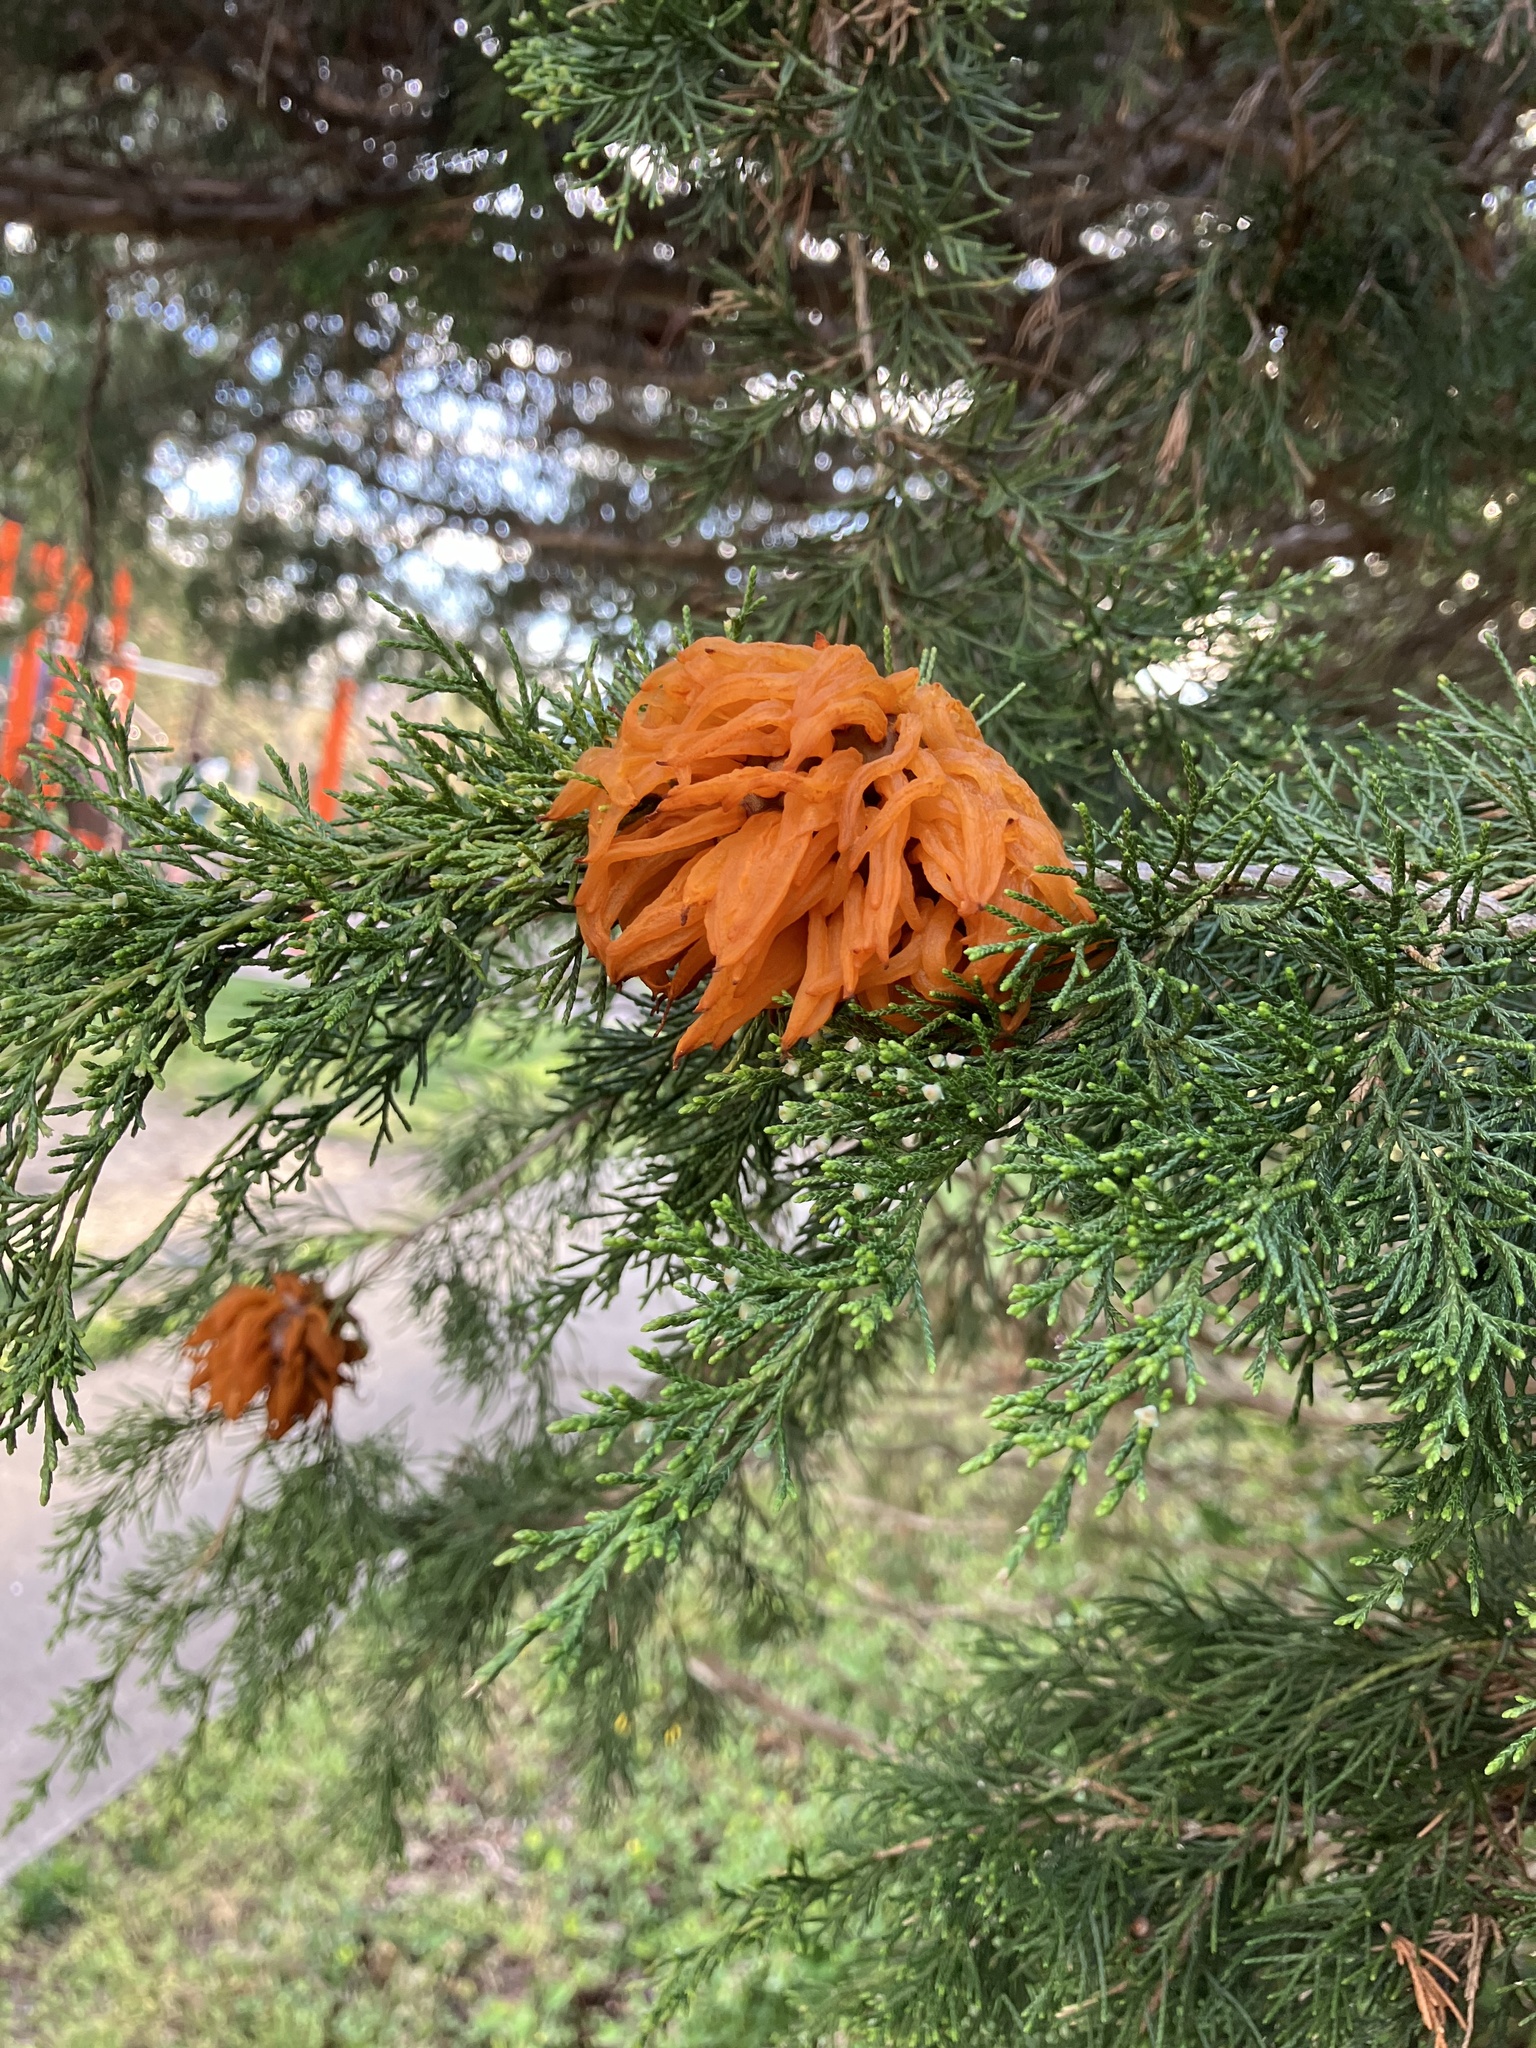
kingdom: Fungi
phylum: Basidiomycota
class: Pucciniomycetes
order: Pucciniales
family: Gymnosporangiaceae
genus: Gymnosporangium
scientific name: Gymnosporangium juniperi-virginianae
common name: Juniper-apple rust
